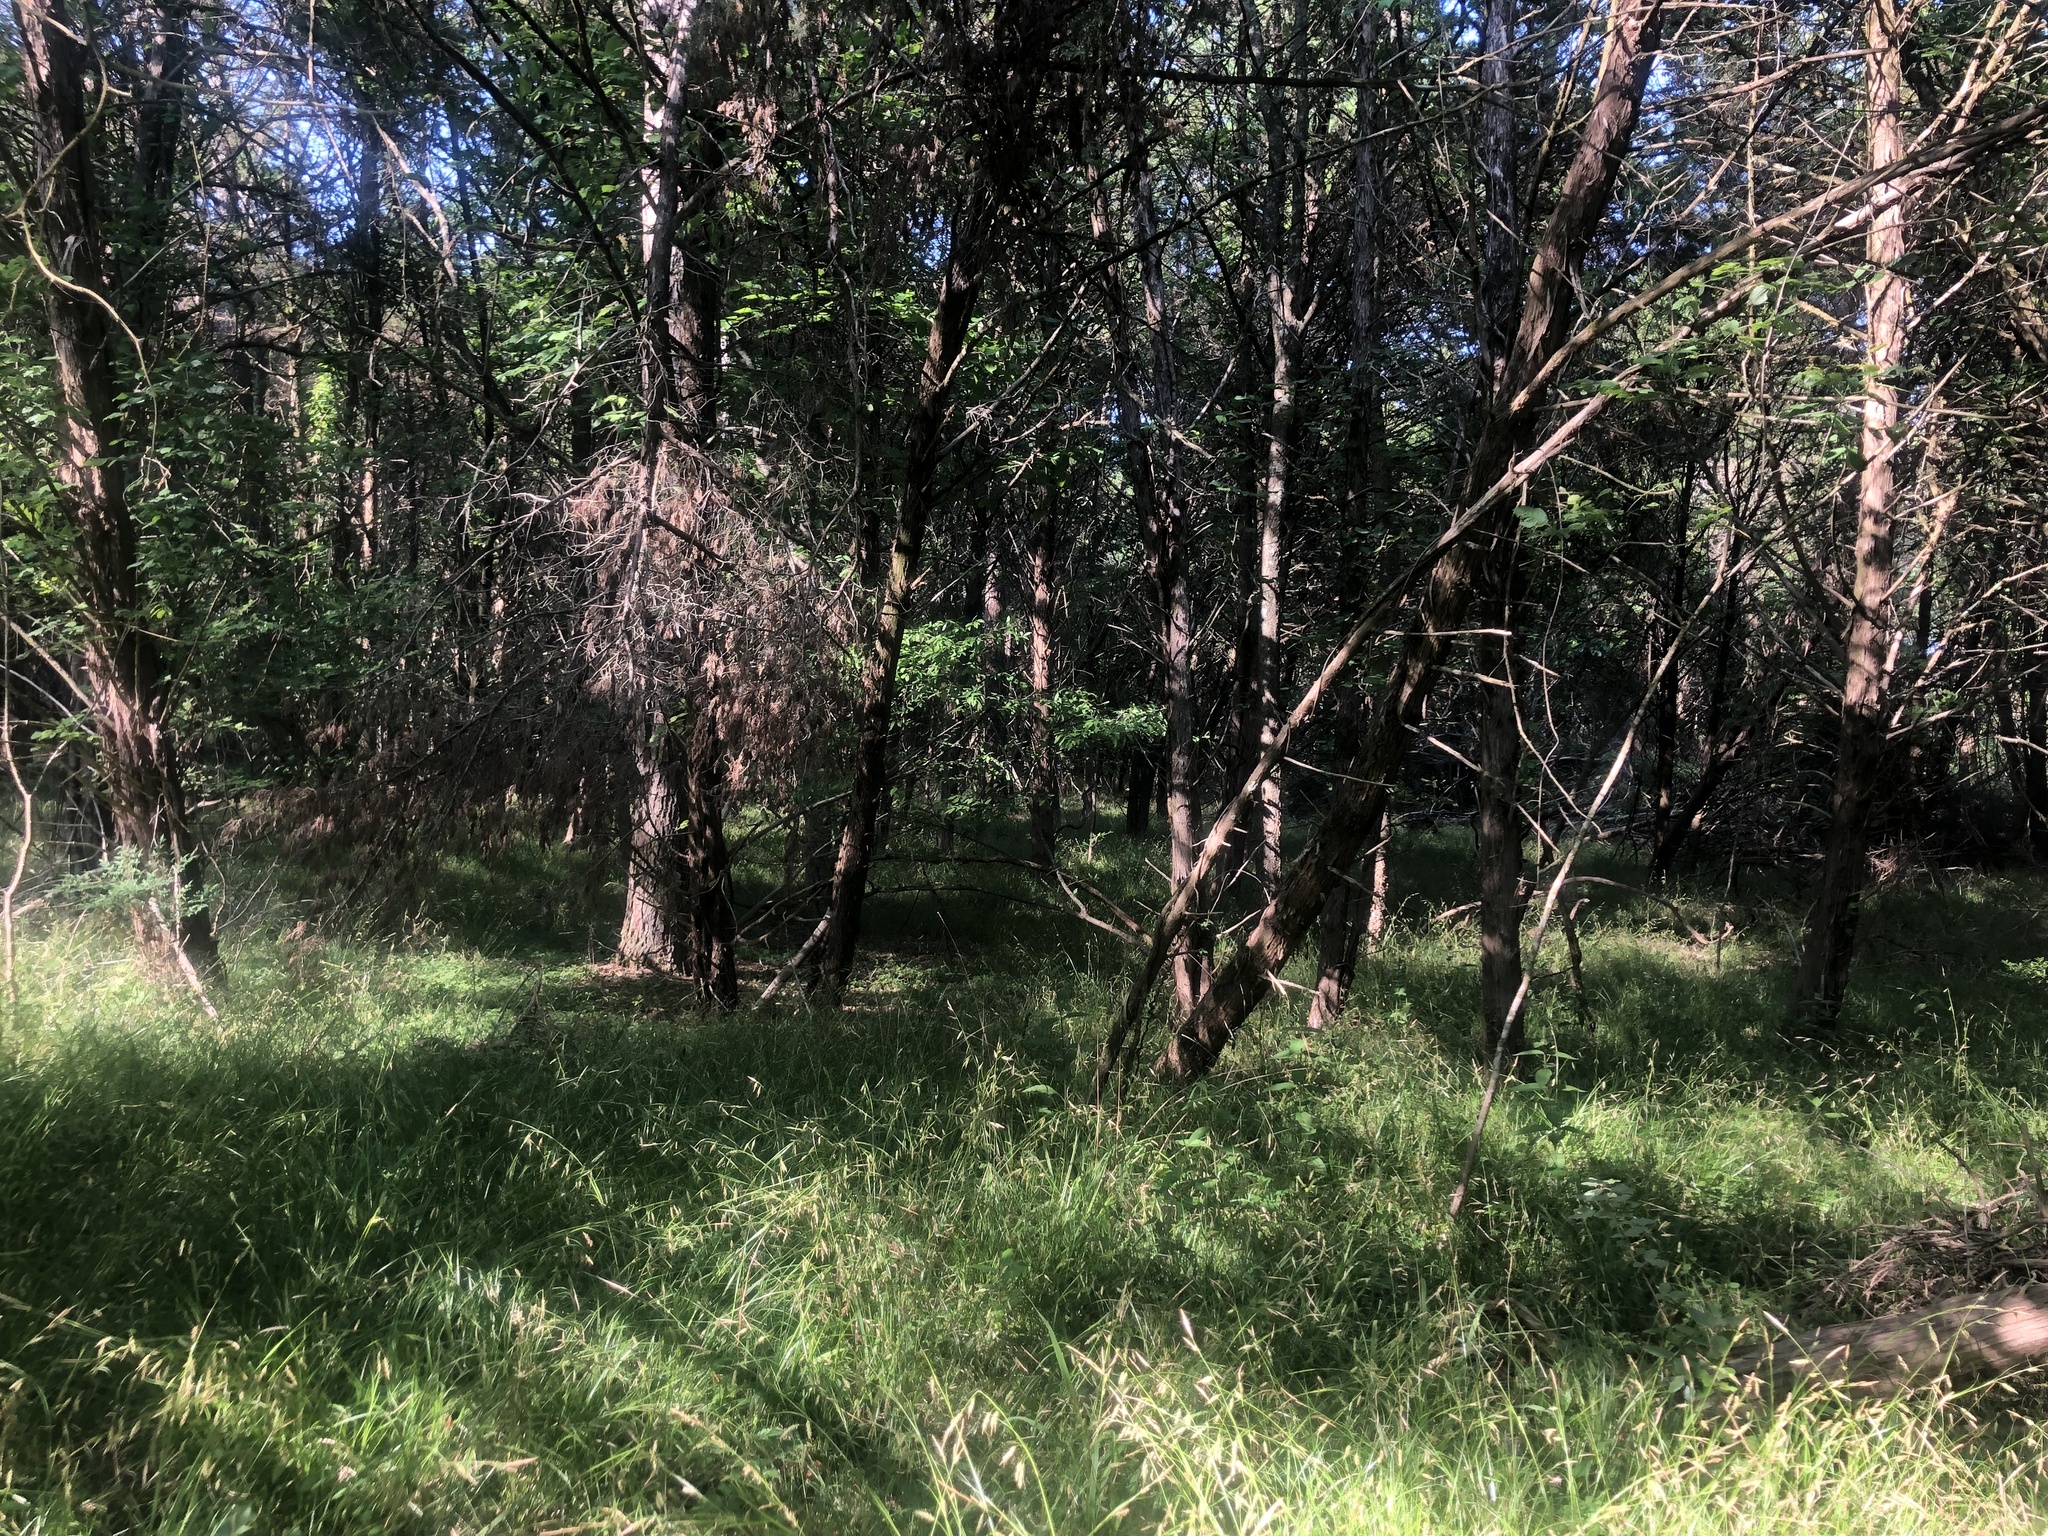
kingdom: Plantae
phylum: Tracheophyta
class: Magnoliopsida
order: Asterales
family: Asteraceae
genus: Silphium
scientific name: Silphium integrifolium
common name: Whole-leaf rosinweed
